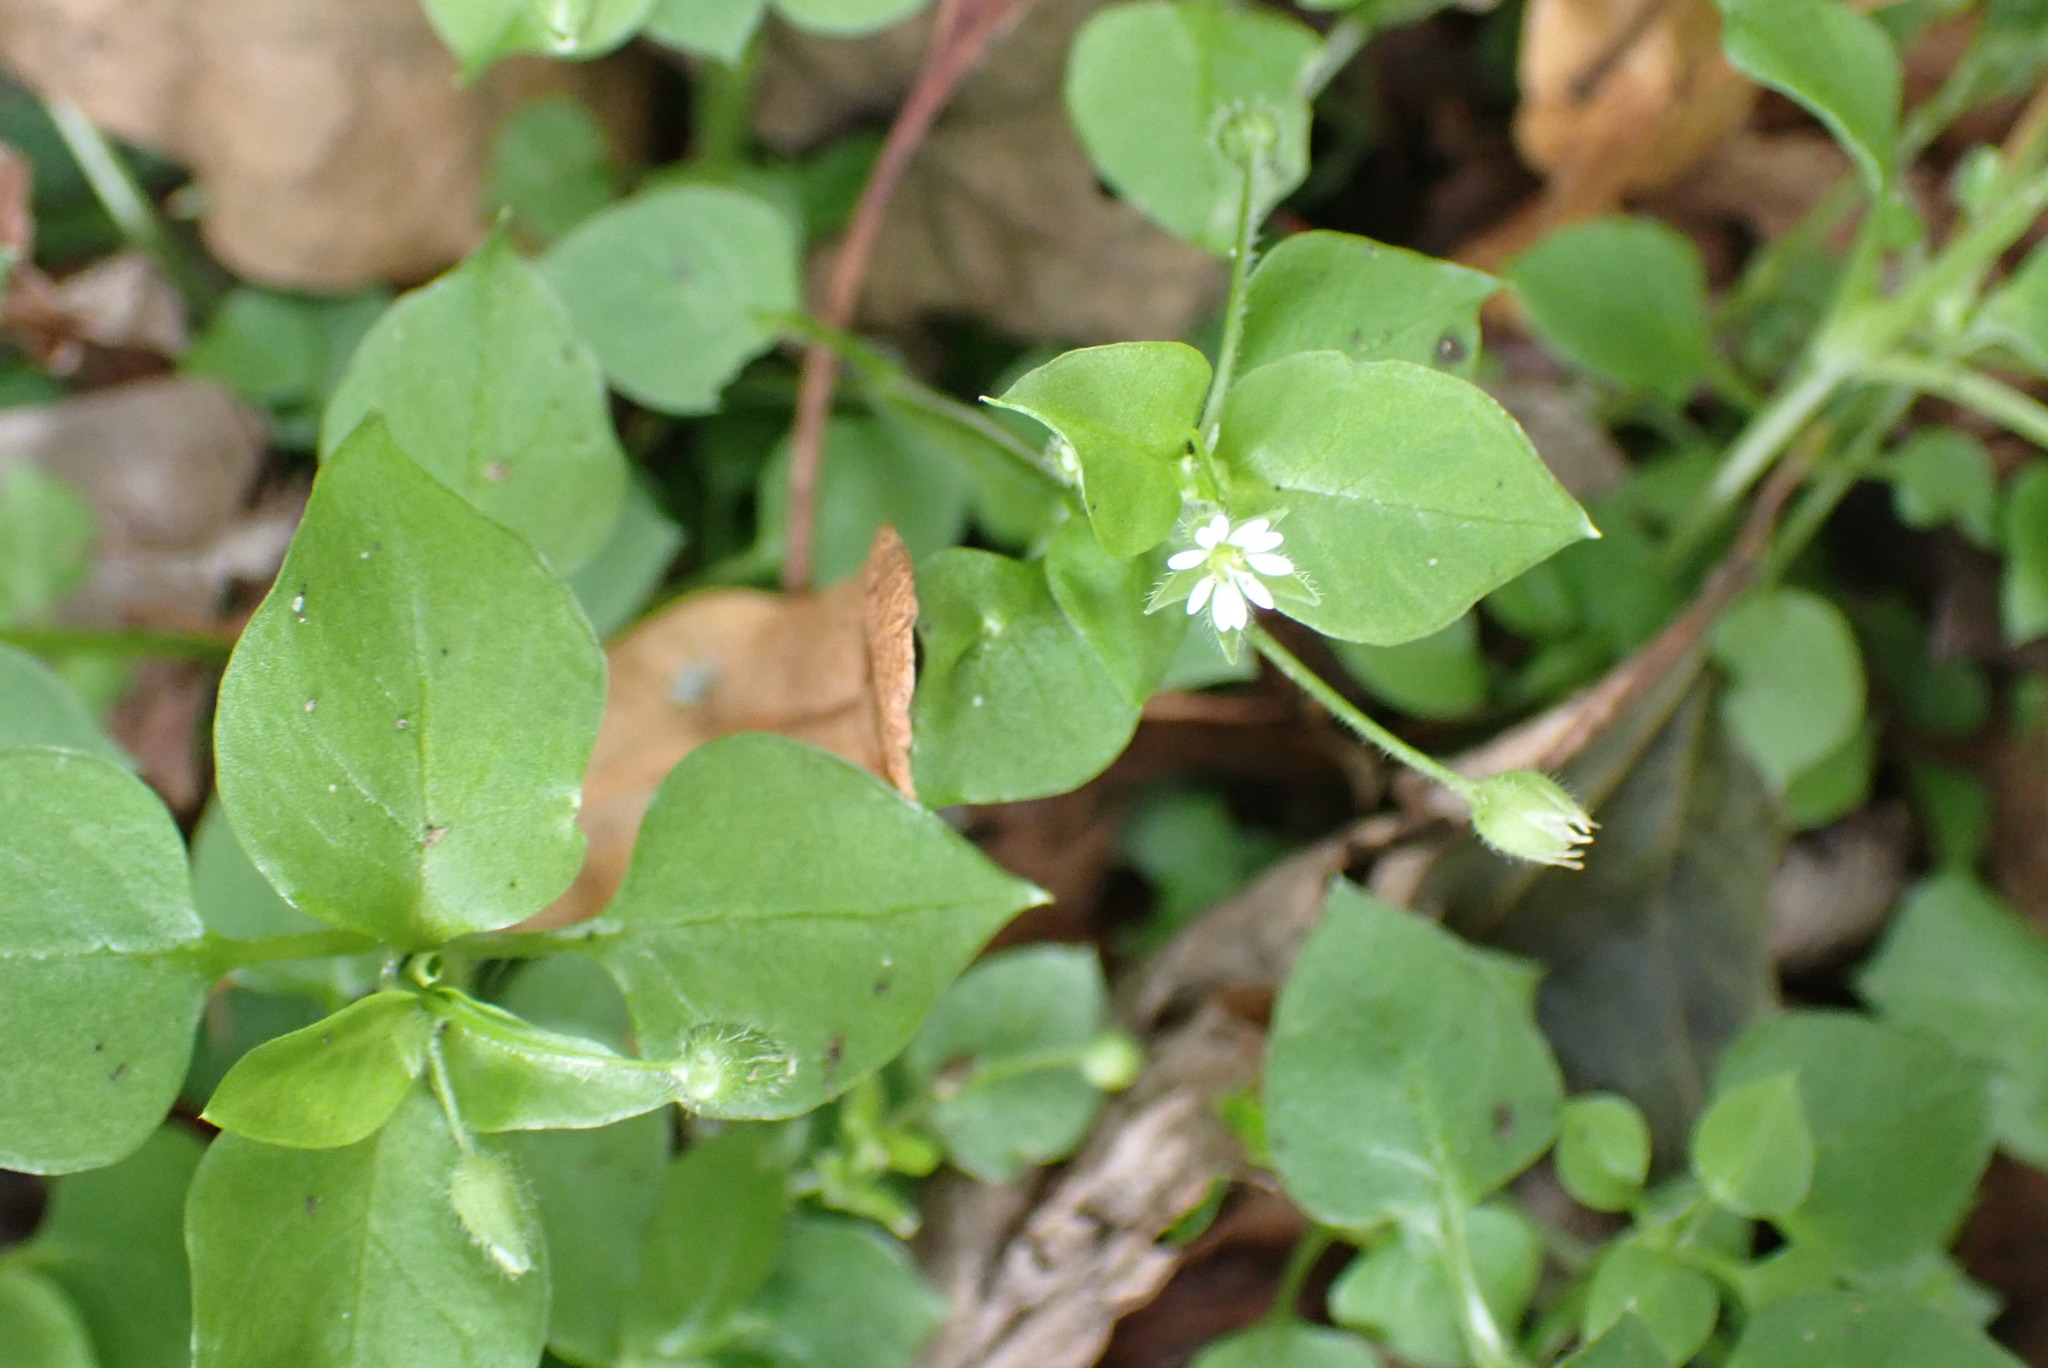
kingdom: Plantae
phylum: Tracheophyta
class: Magnoliopsida
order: Caryophyllales
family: Caryophyllaceae
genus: Stellaria
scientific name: Stellaria media
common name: Common chickweed
